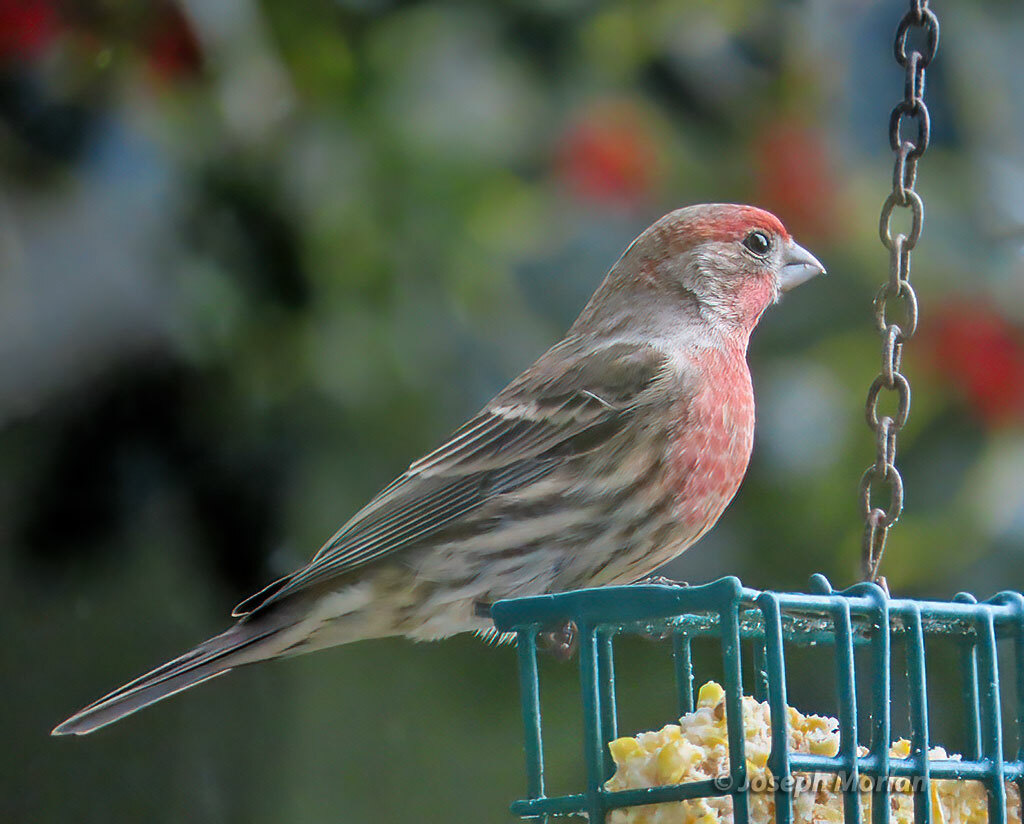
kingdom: Animalia
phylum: Chordata
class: Aves
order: Passeriformes
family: Fringillidae
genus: Haemorhous
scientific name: Haemorhous mexicanus
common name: House finch
